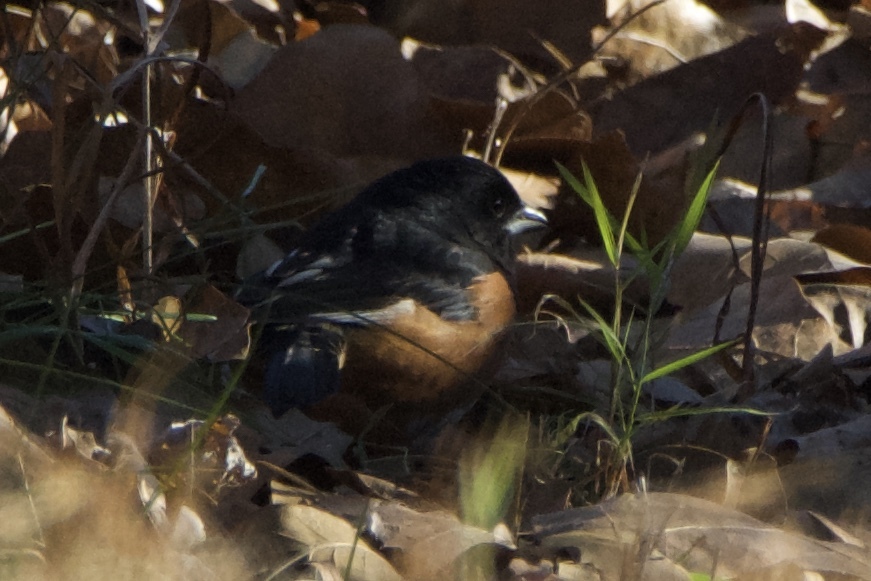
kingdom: Animalia
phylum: Chordata
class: Aves
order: Passeriformes
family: Passerellidae
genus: Pipilo
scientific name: Pipilo erythrophthalmus
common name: Eastern towhee
